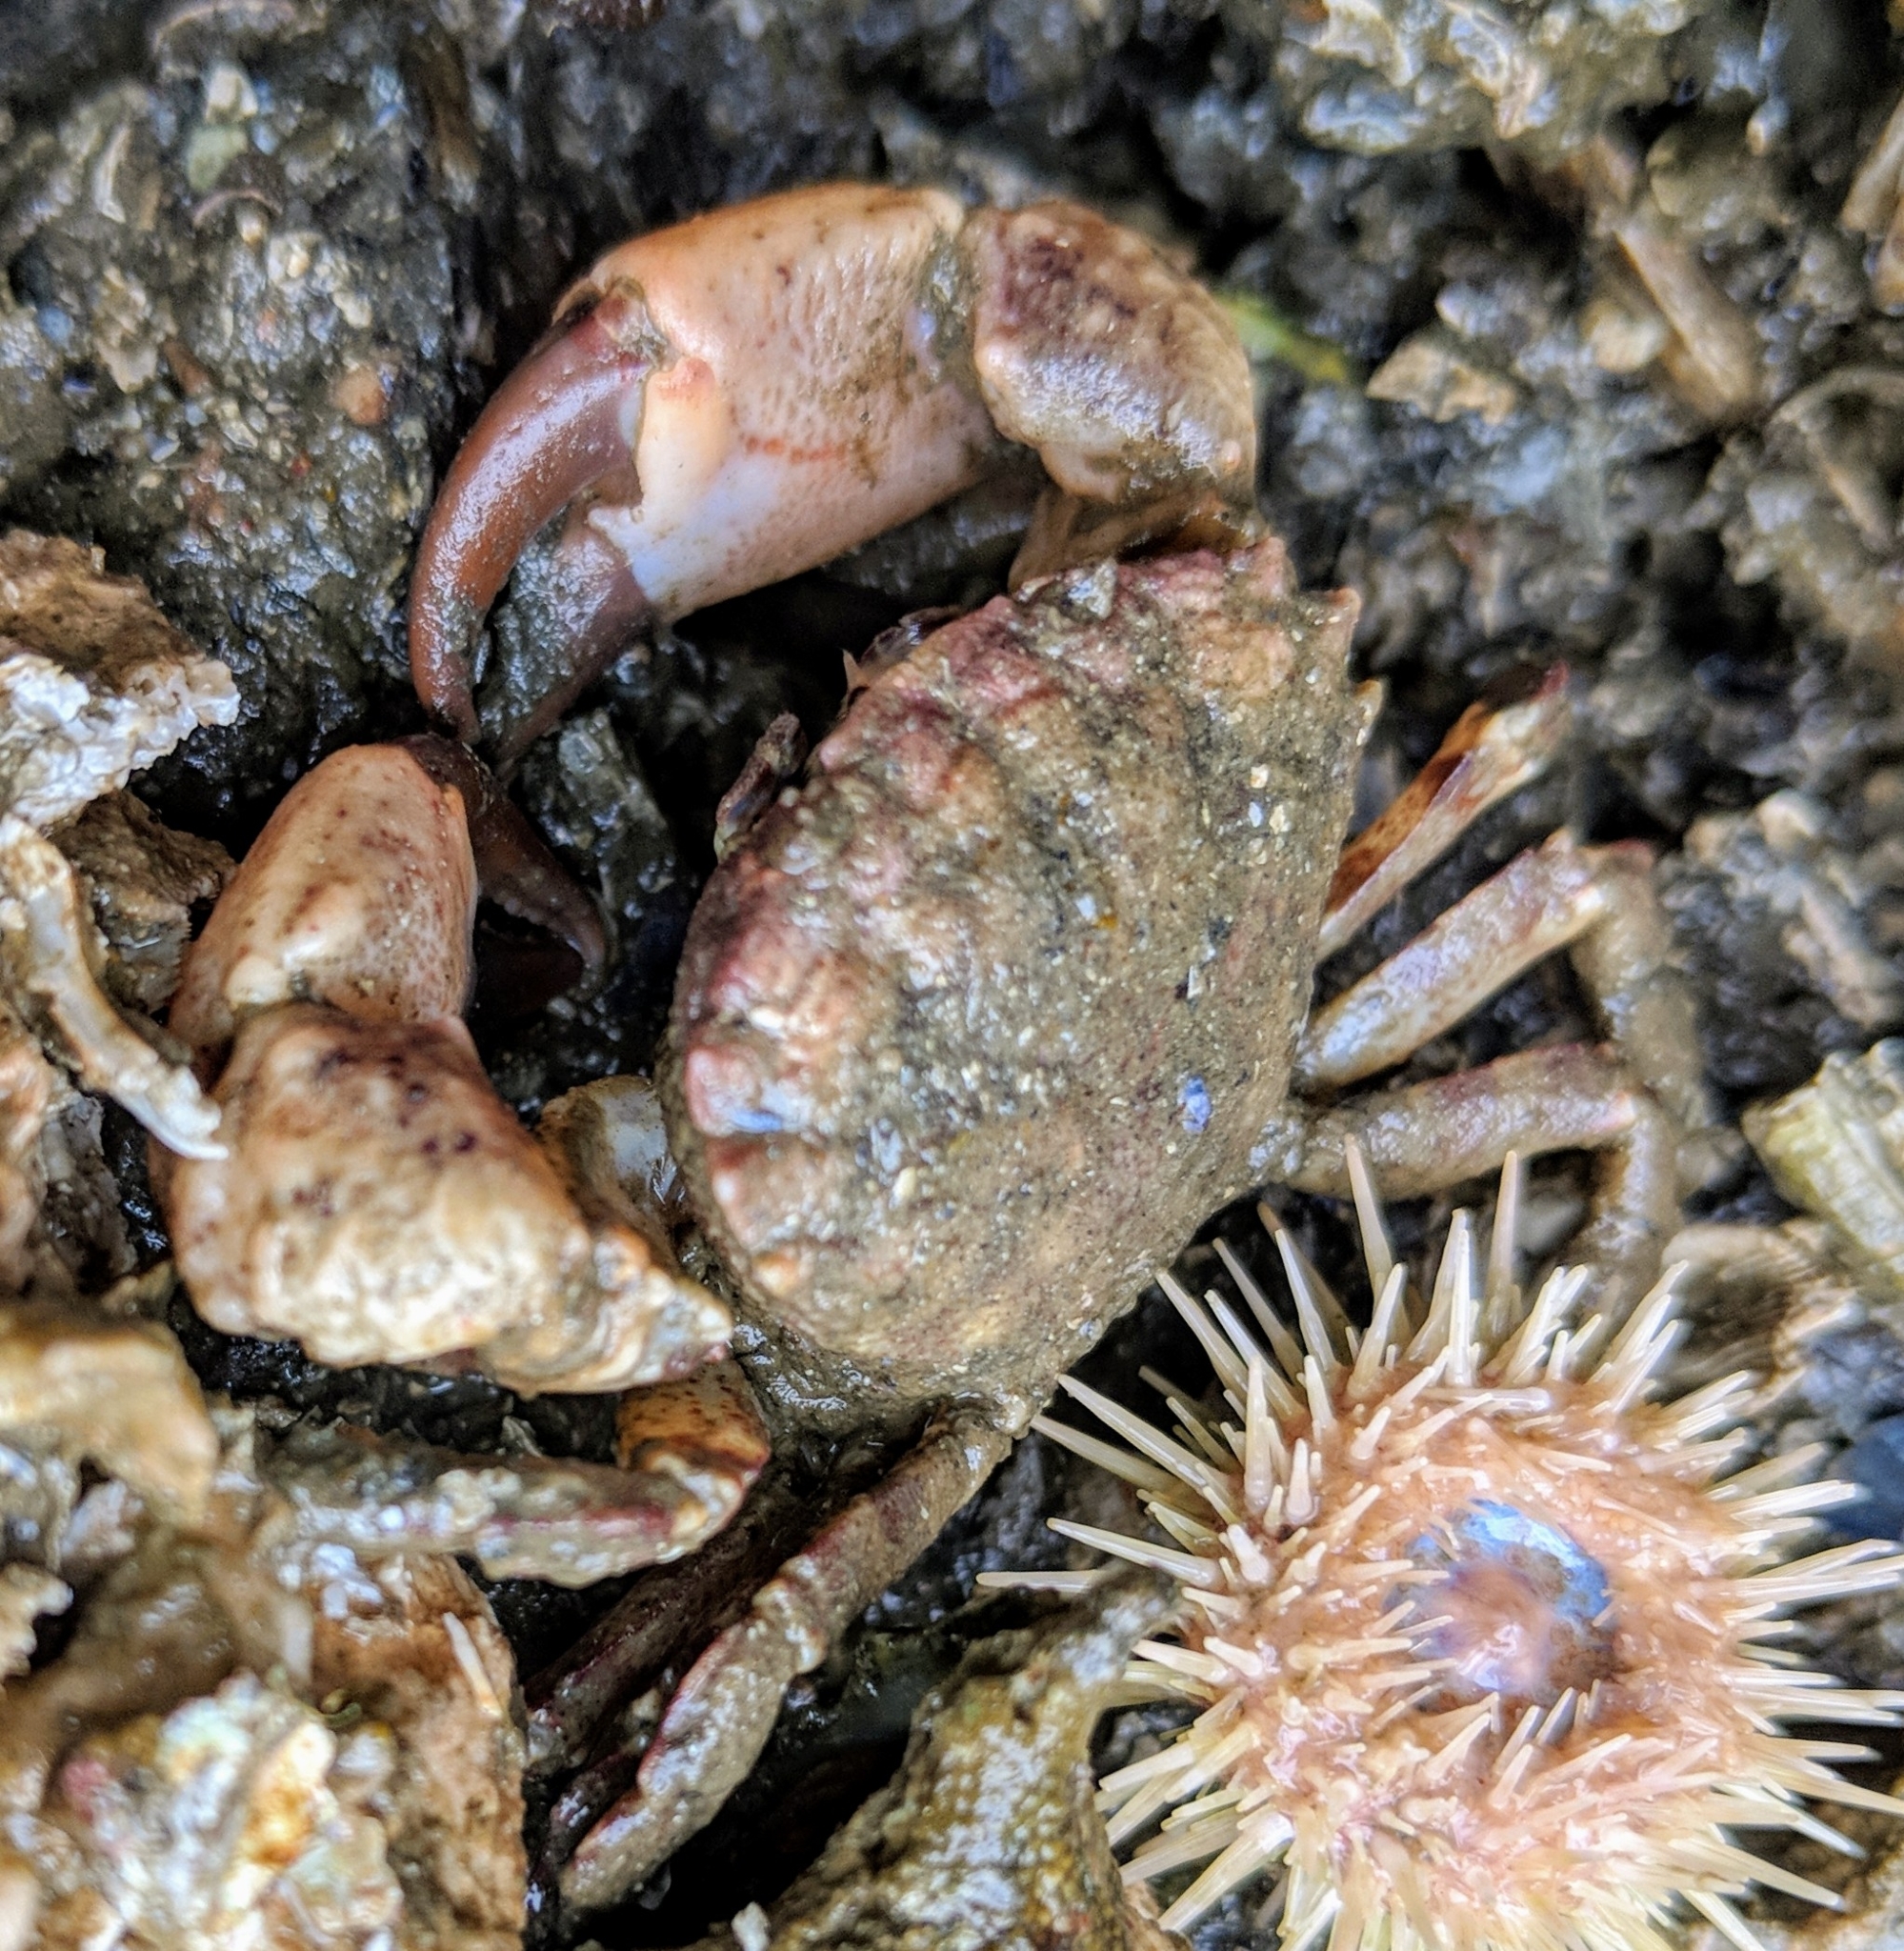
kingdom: Animalia
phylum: Arthropoda
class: Malacostraca
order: Decapoda
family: Panopeidae
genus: Lophopanopeus
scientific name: Lophopanopeus bellus
